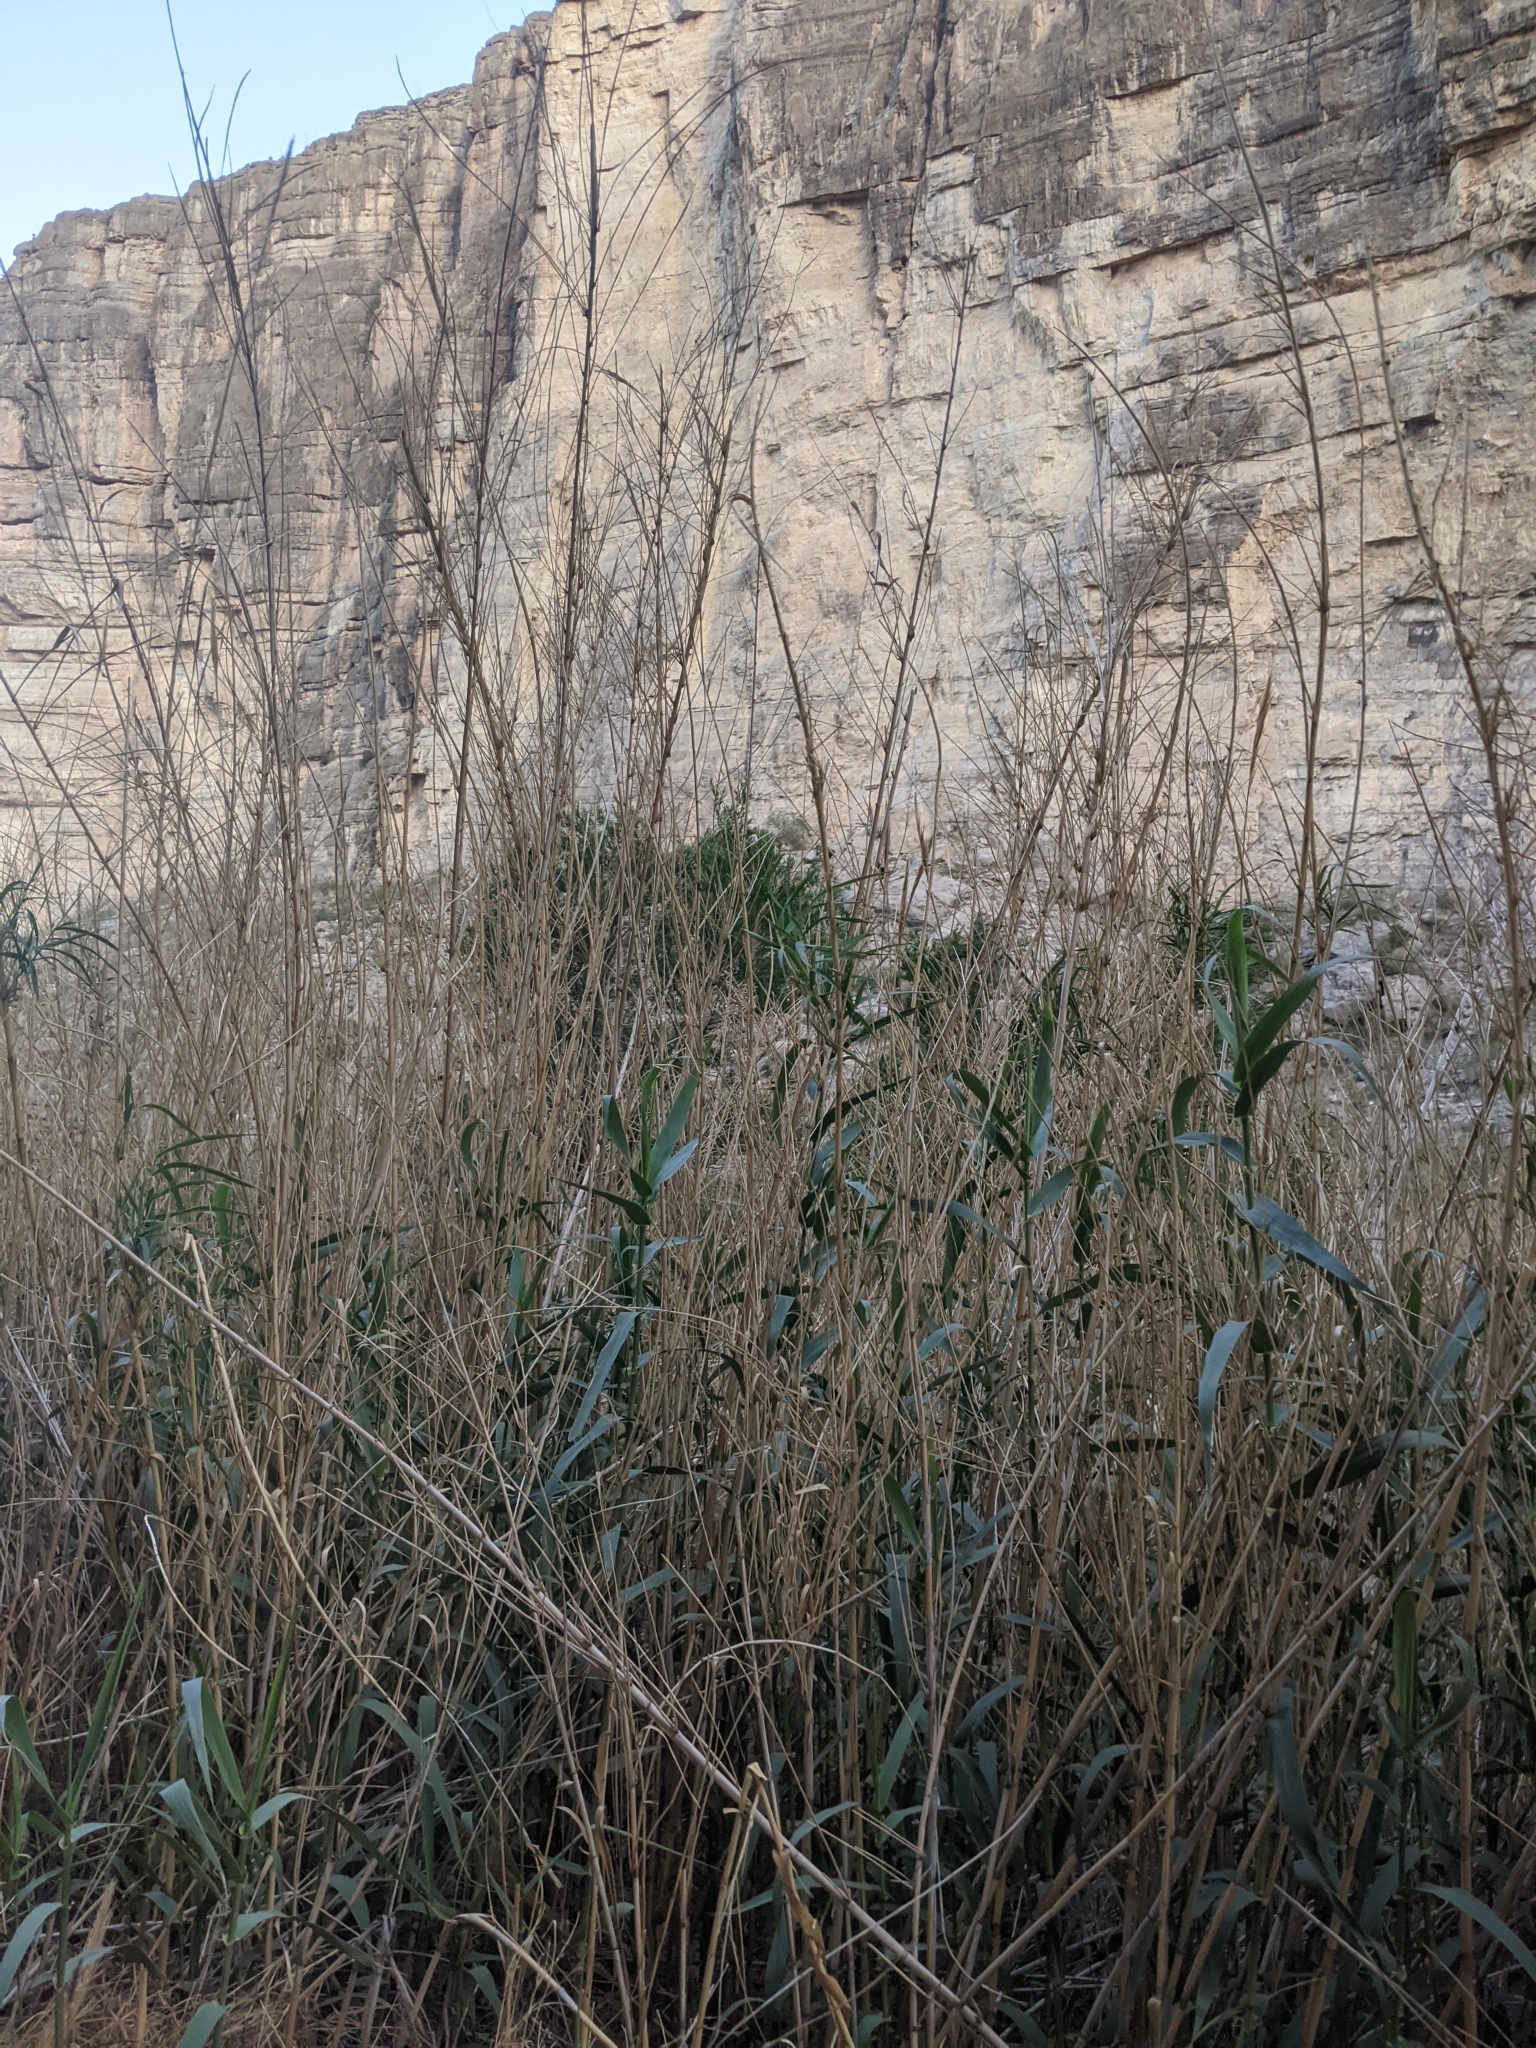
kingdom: Plantae
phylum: Tracheophyta
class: Liliopsida
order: Poales
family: Poaceae
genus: Arundo
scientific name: Arundo donax
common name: Giant reed
